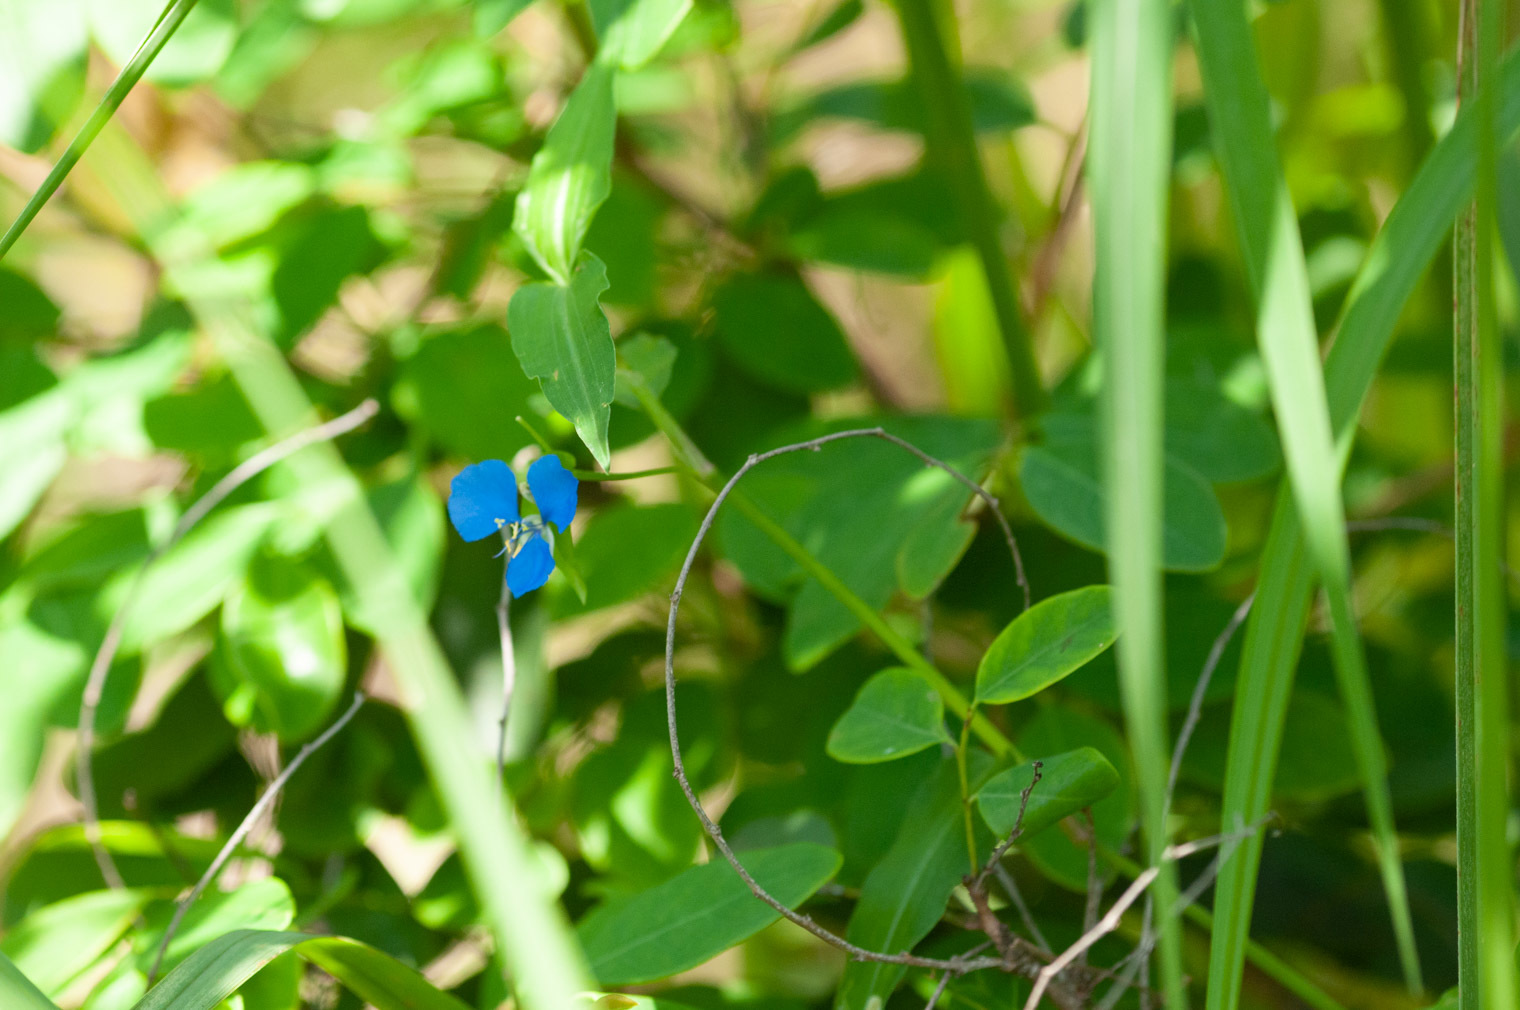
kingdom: Plantae
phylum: Tracheophyta
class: Liliopsida
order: Commelinales
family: Commelinaceae
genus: Commelina
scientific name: Commelina diffusa
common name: Climbing dayflower
